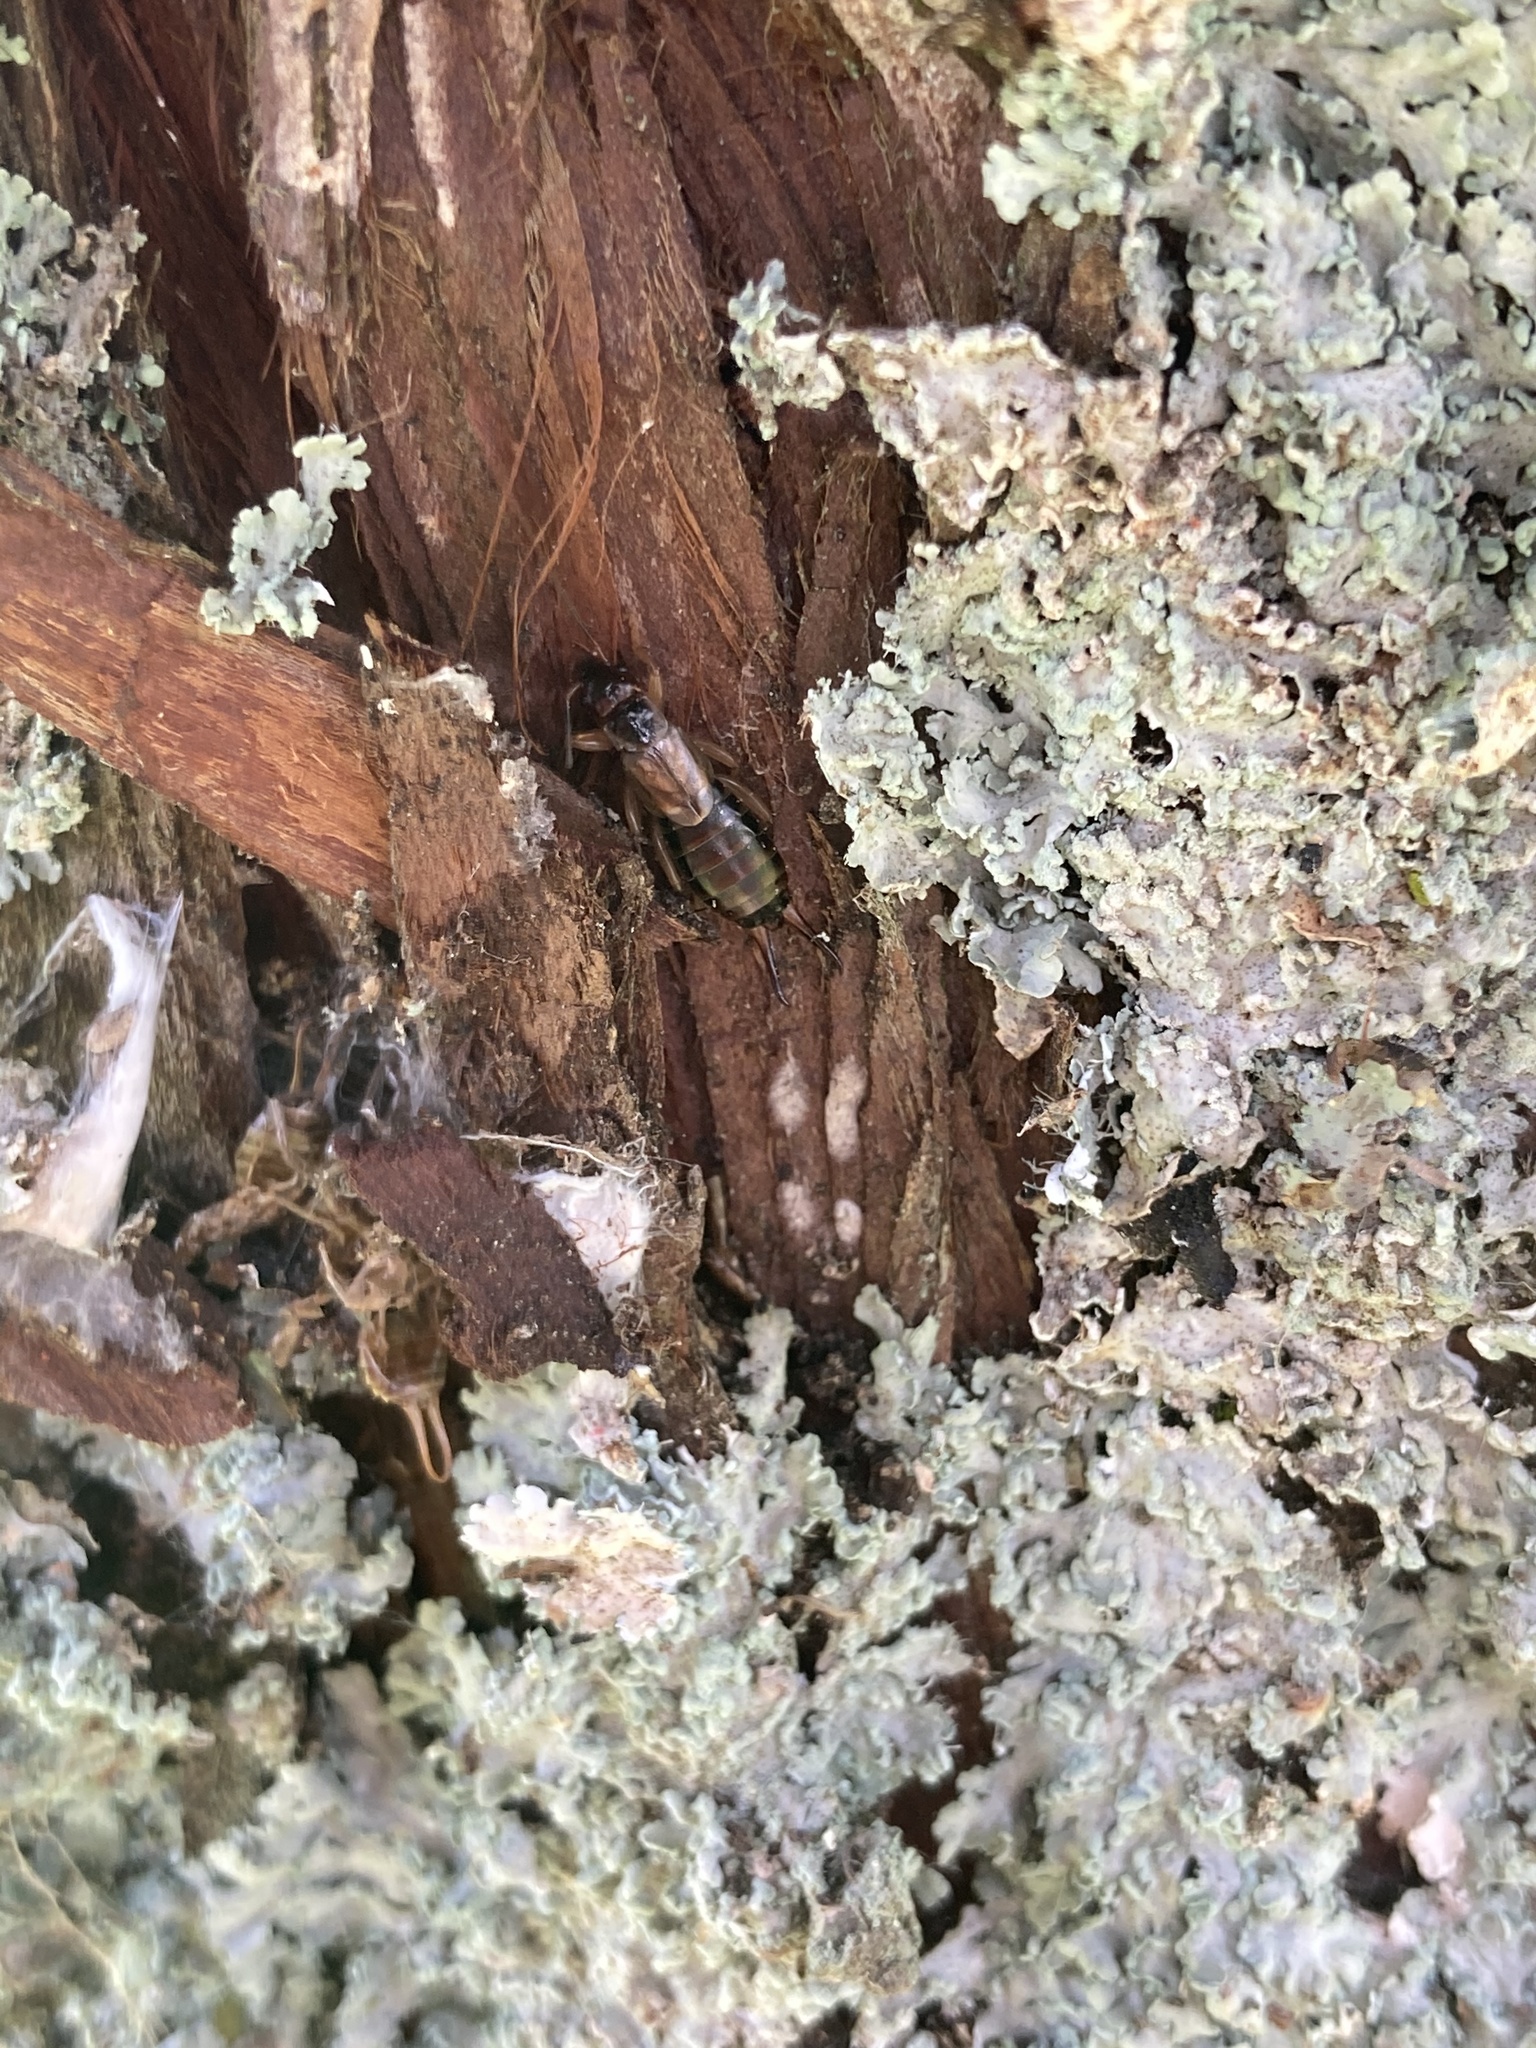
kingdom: Animalia
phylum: Arthropoda
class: Insecta
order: Dermaptera
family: Forficulidae
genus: Forficula
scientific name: Forficula dentata
